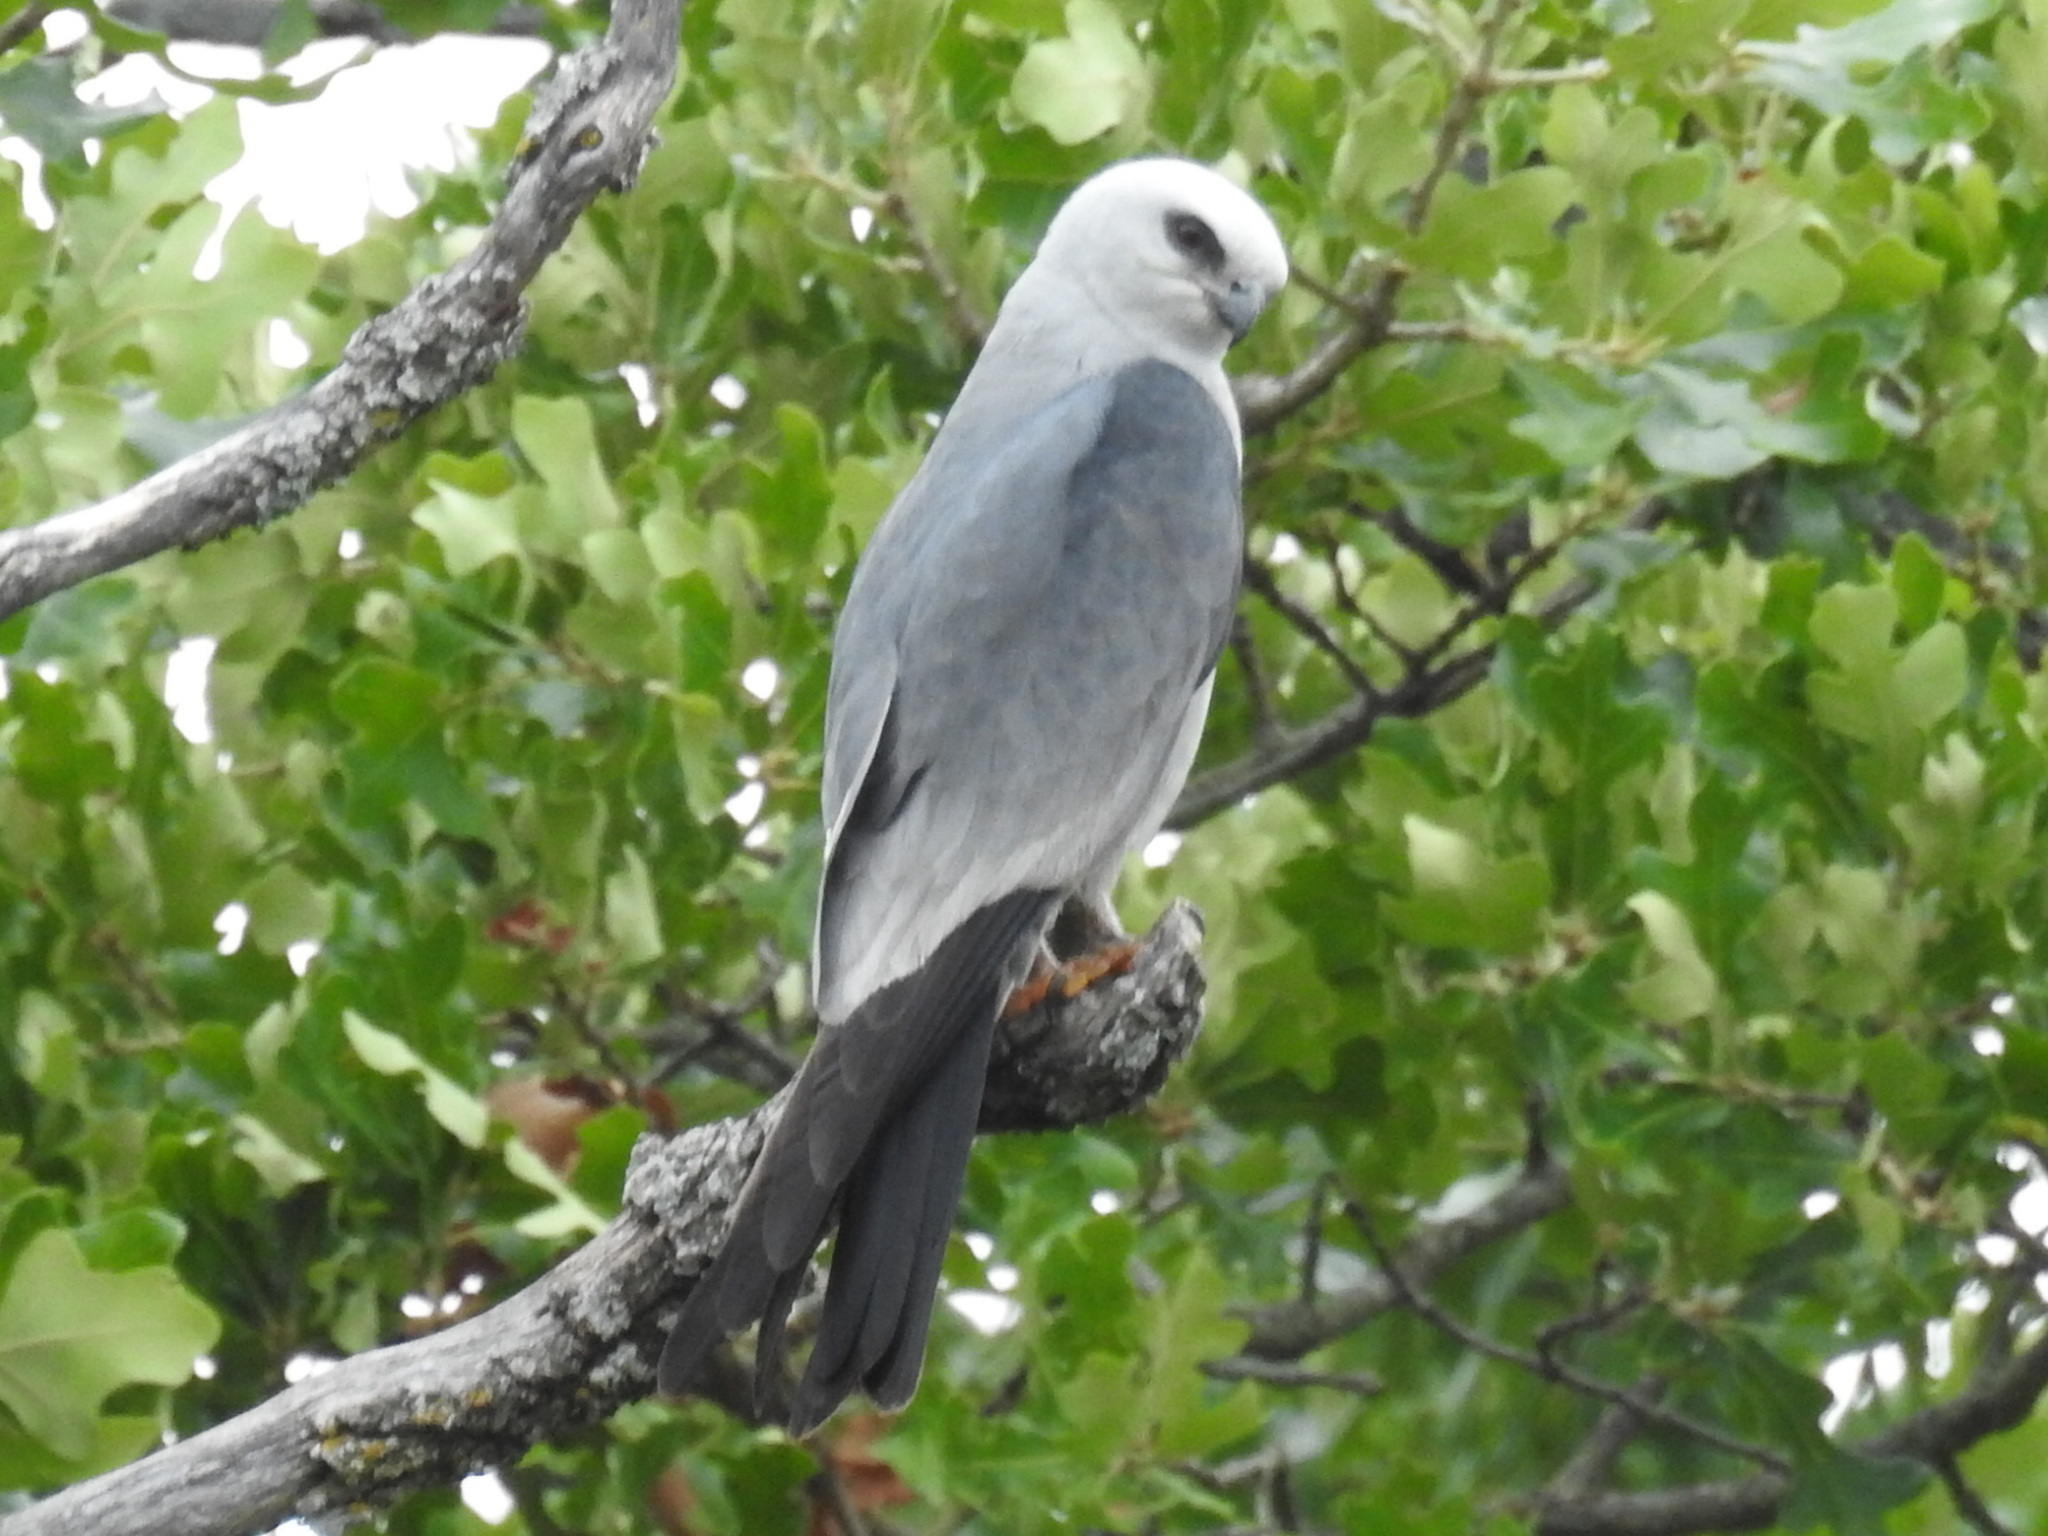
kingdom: Animalia
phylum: Chordata
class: Aves
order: Accipitriformes
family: Accipitridae
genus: Ictinia
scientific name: Ictinia mississippiensis
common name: Mississippi kite
